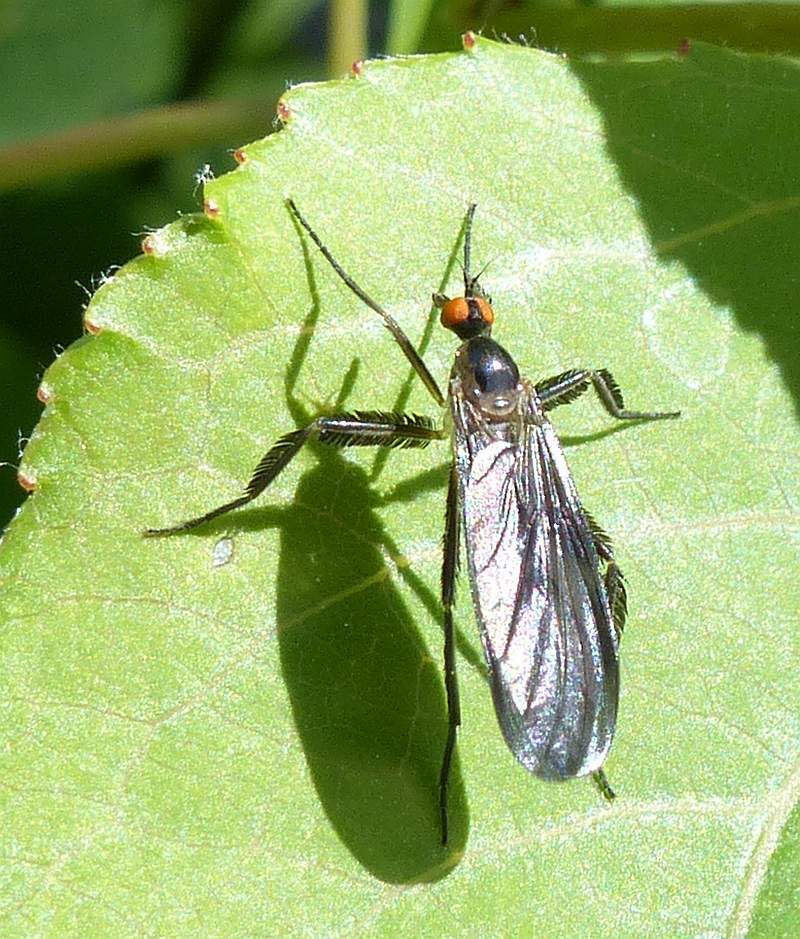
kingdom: Animalia
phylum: Arthropoda
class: Insecta
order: Diptera
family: Empididae
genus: Rhamphomyia
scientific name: Rhamphomyia longicauda
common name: Long-tailed dance fly
